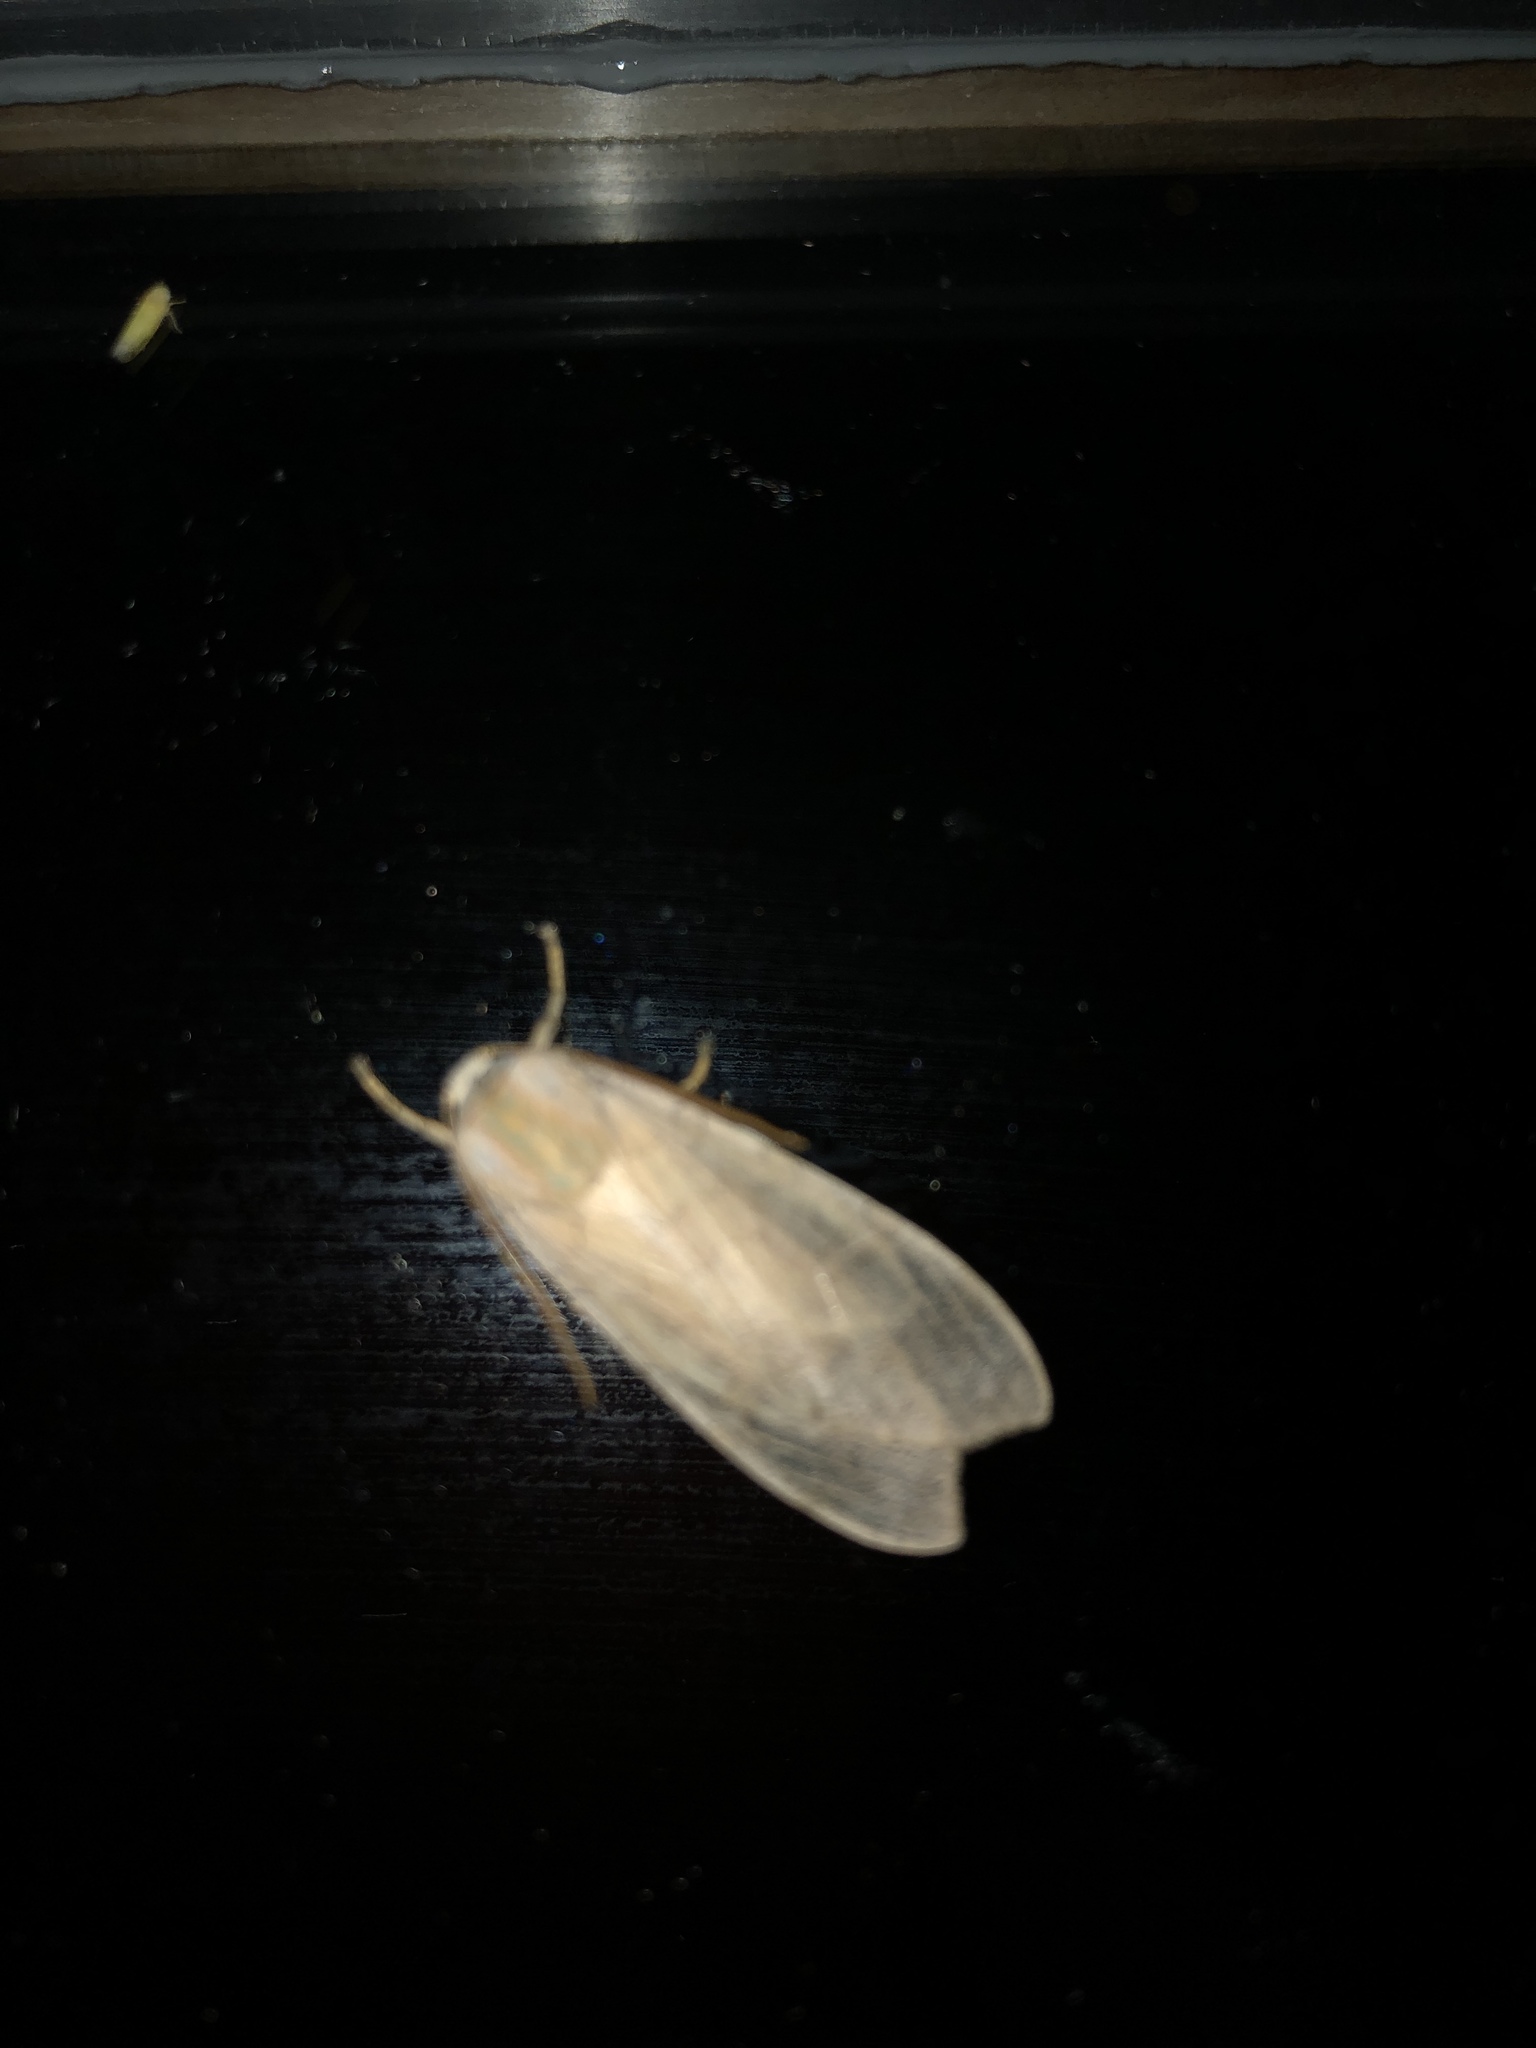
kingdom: Animalia
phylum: Arthropoda
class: Insecta
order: Lepidoptera
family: Erebidae
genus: Halysidota
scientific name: Halysidota
